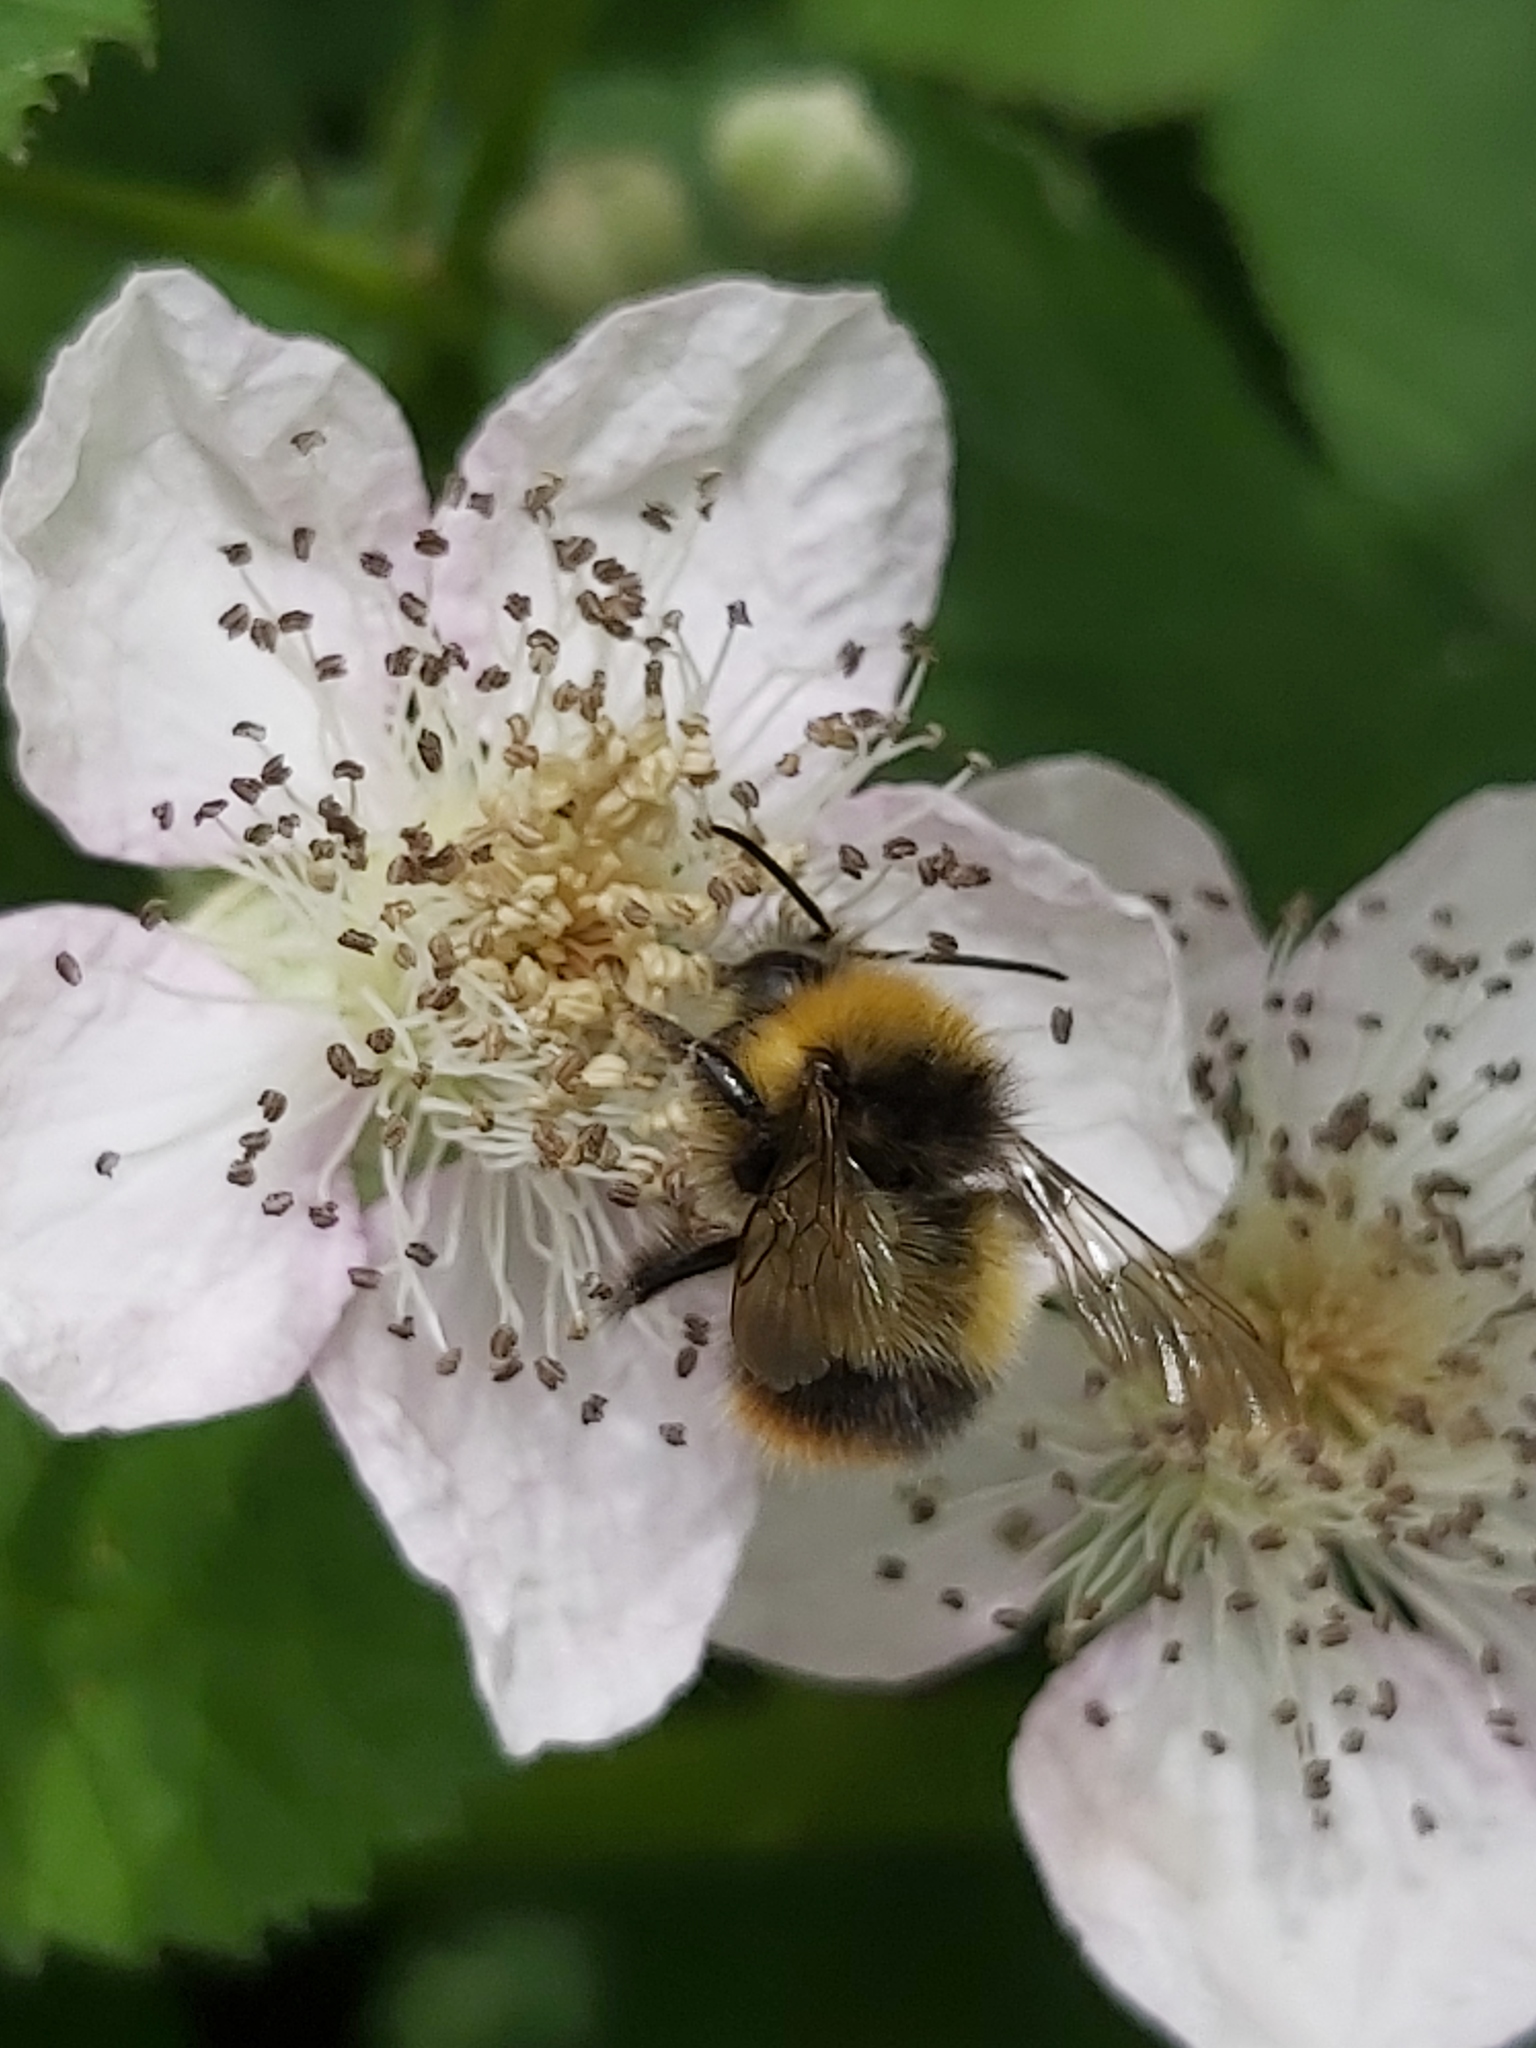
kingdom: Animalia
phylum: Arthropoda
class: Insecta
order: Hymenoptera
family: Apidae
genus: Bombus
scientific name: Bombus pratorum
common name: Early humble-bee
